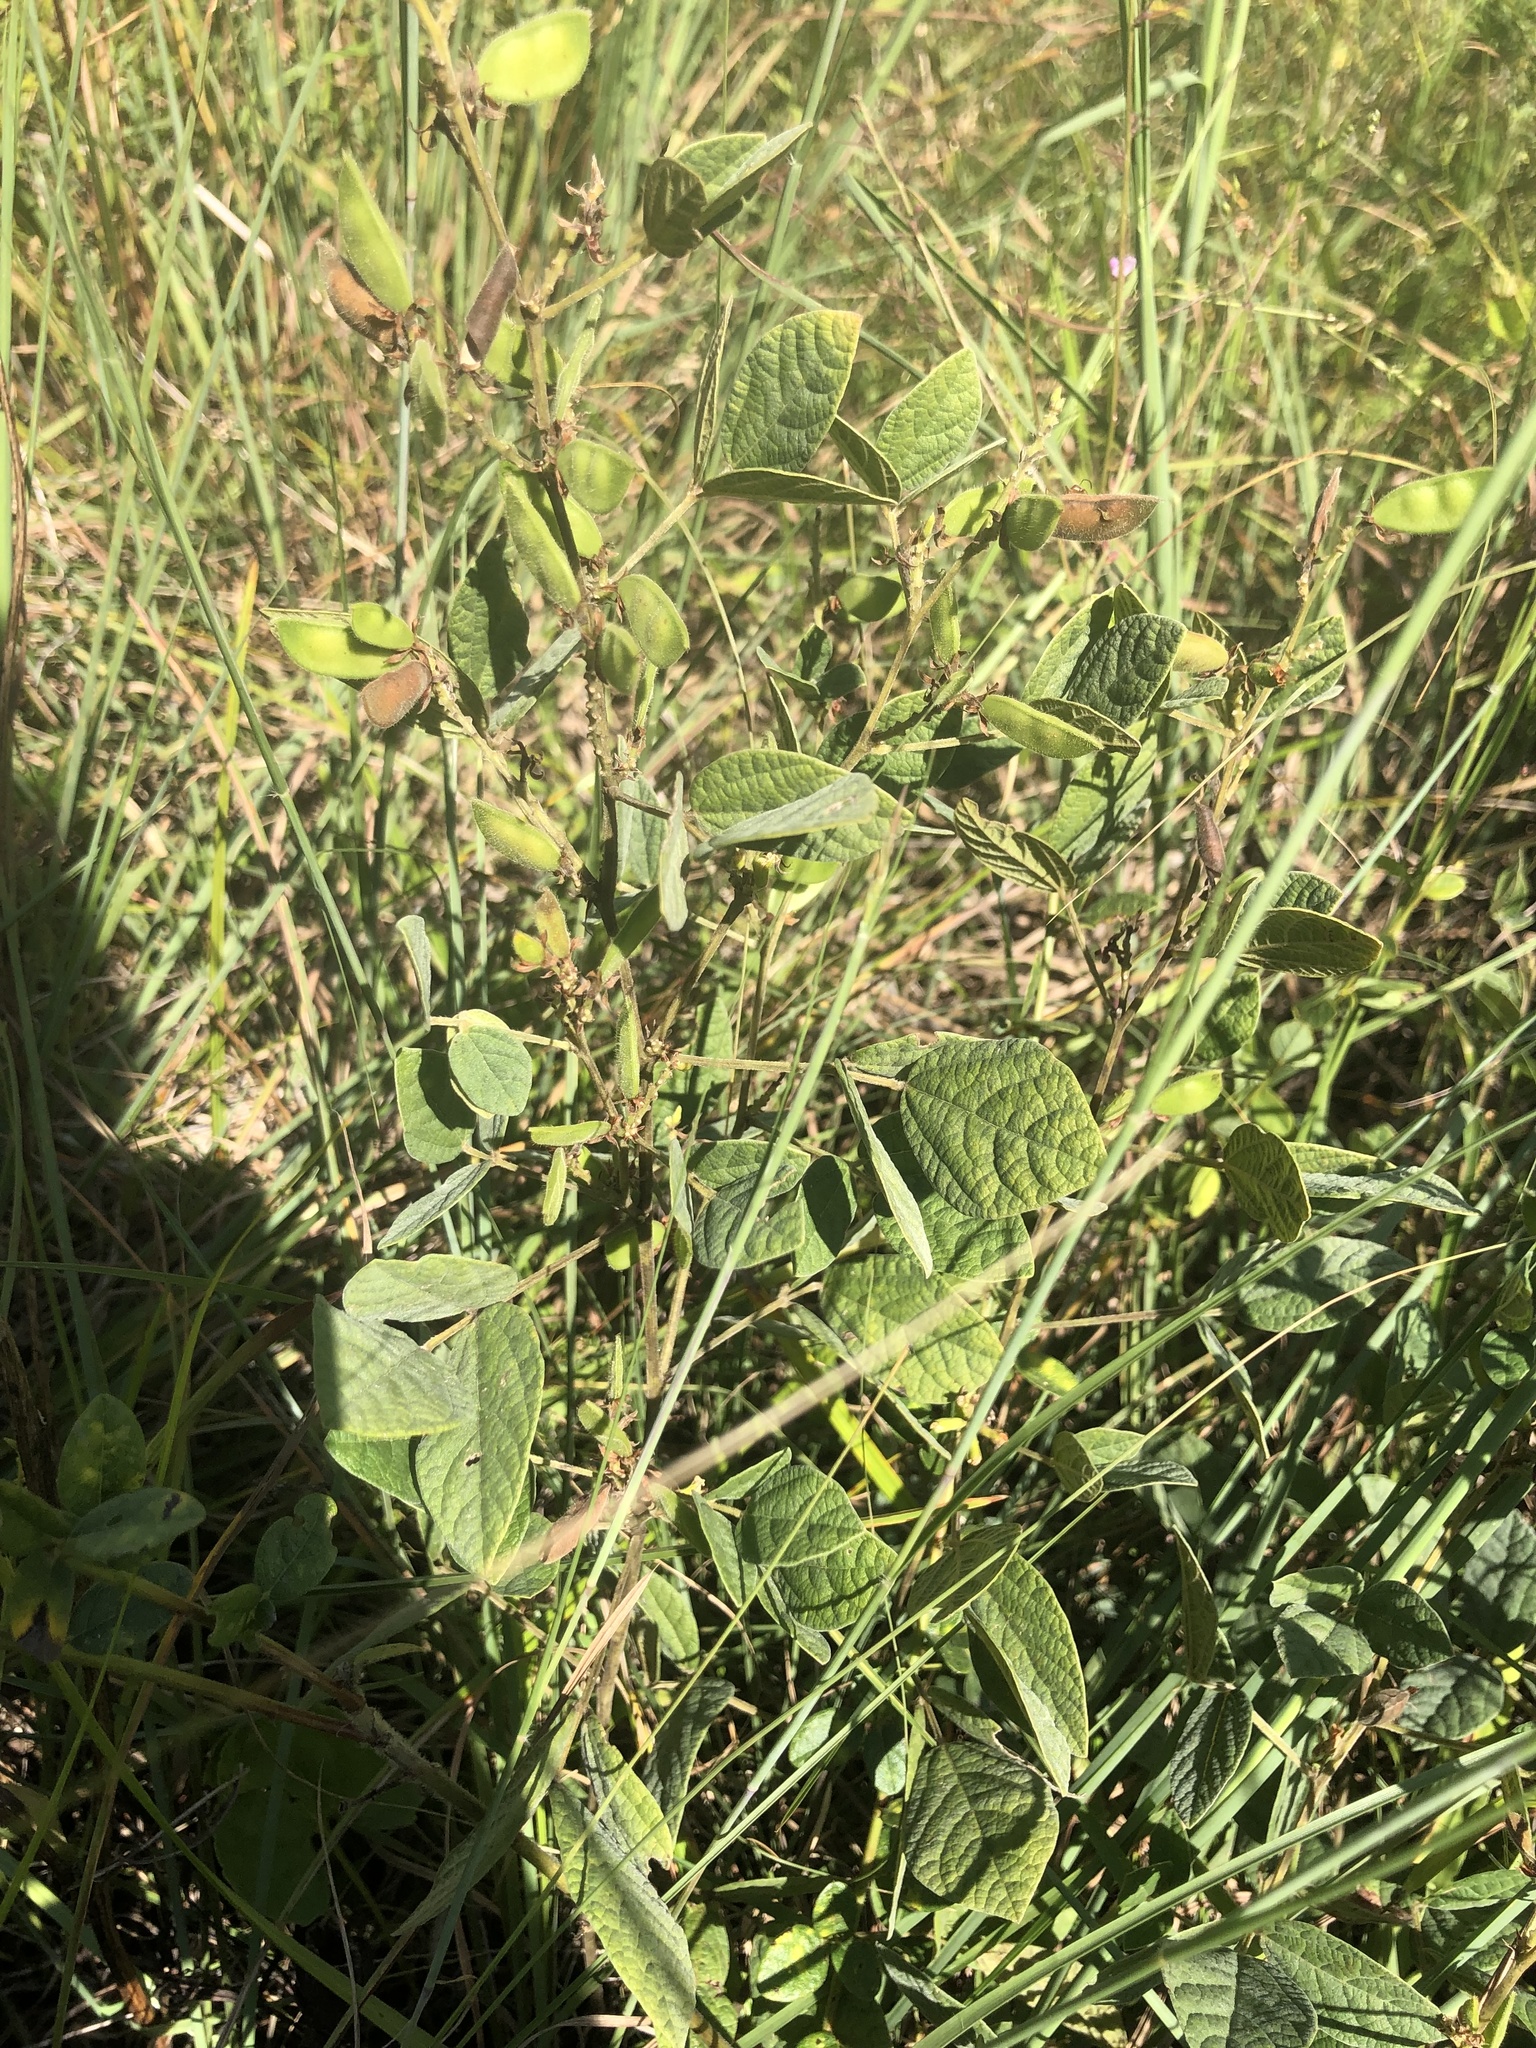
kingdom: Plantae
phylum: Tracheophyta
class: Magnoliopsida
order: Fabales
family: Fabaceae
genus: Rhynchosia
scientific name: Rhynchosia tomentosa
